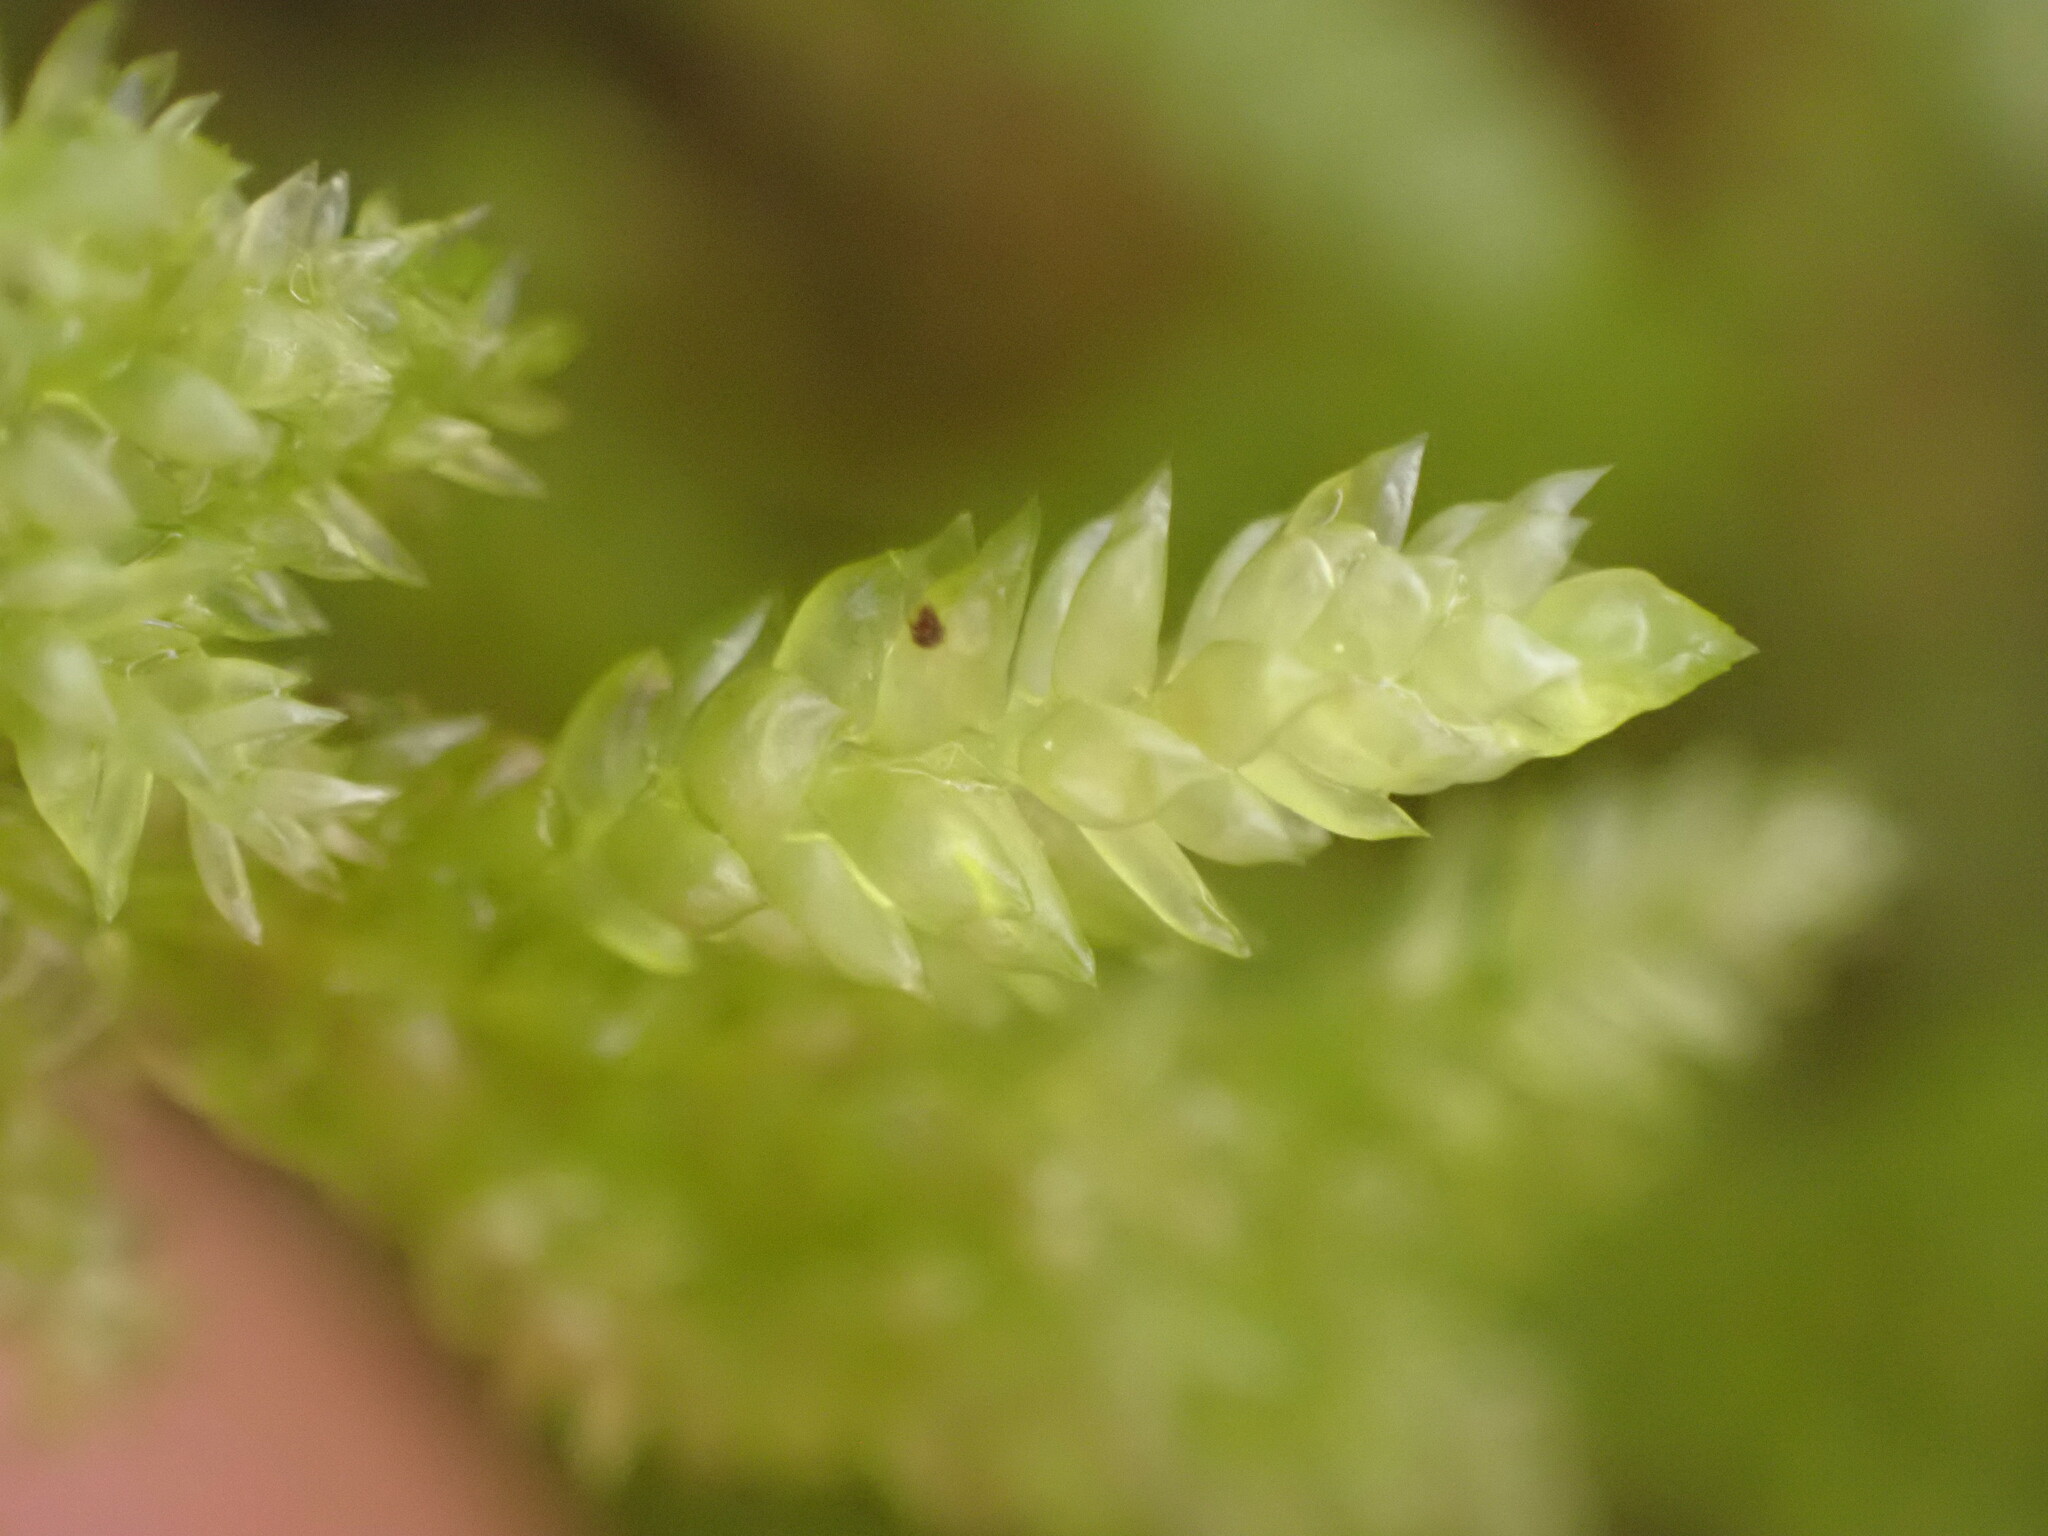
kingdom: Plantae
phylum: Bryophyta
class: Bryopsida
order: Hypnales
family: Lembophyllaceae
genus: Camptochaete
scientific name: Camptochaete arbuscula
